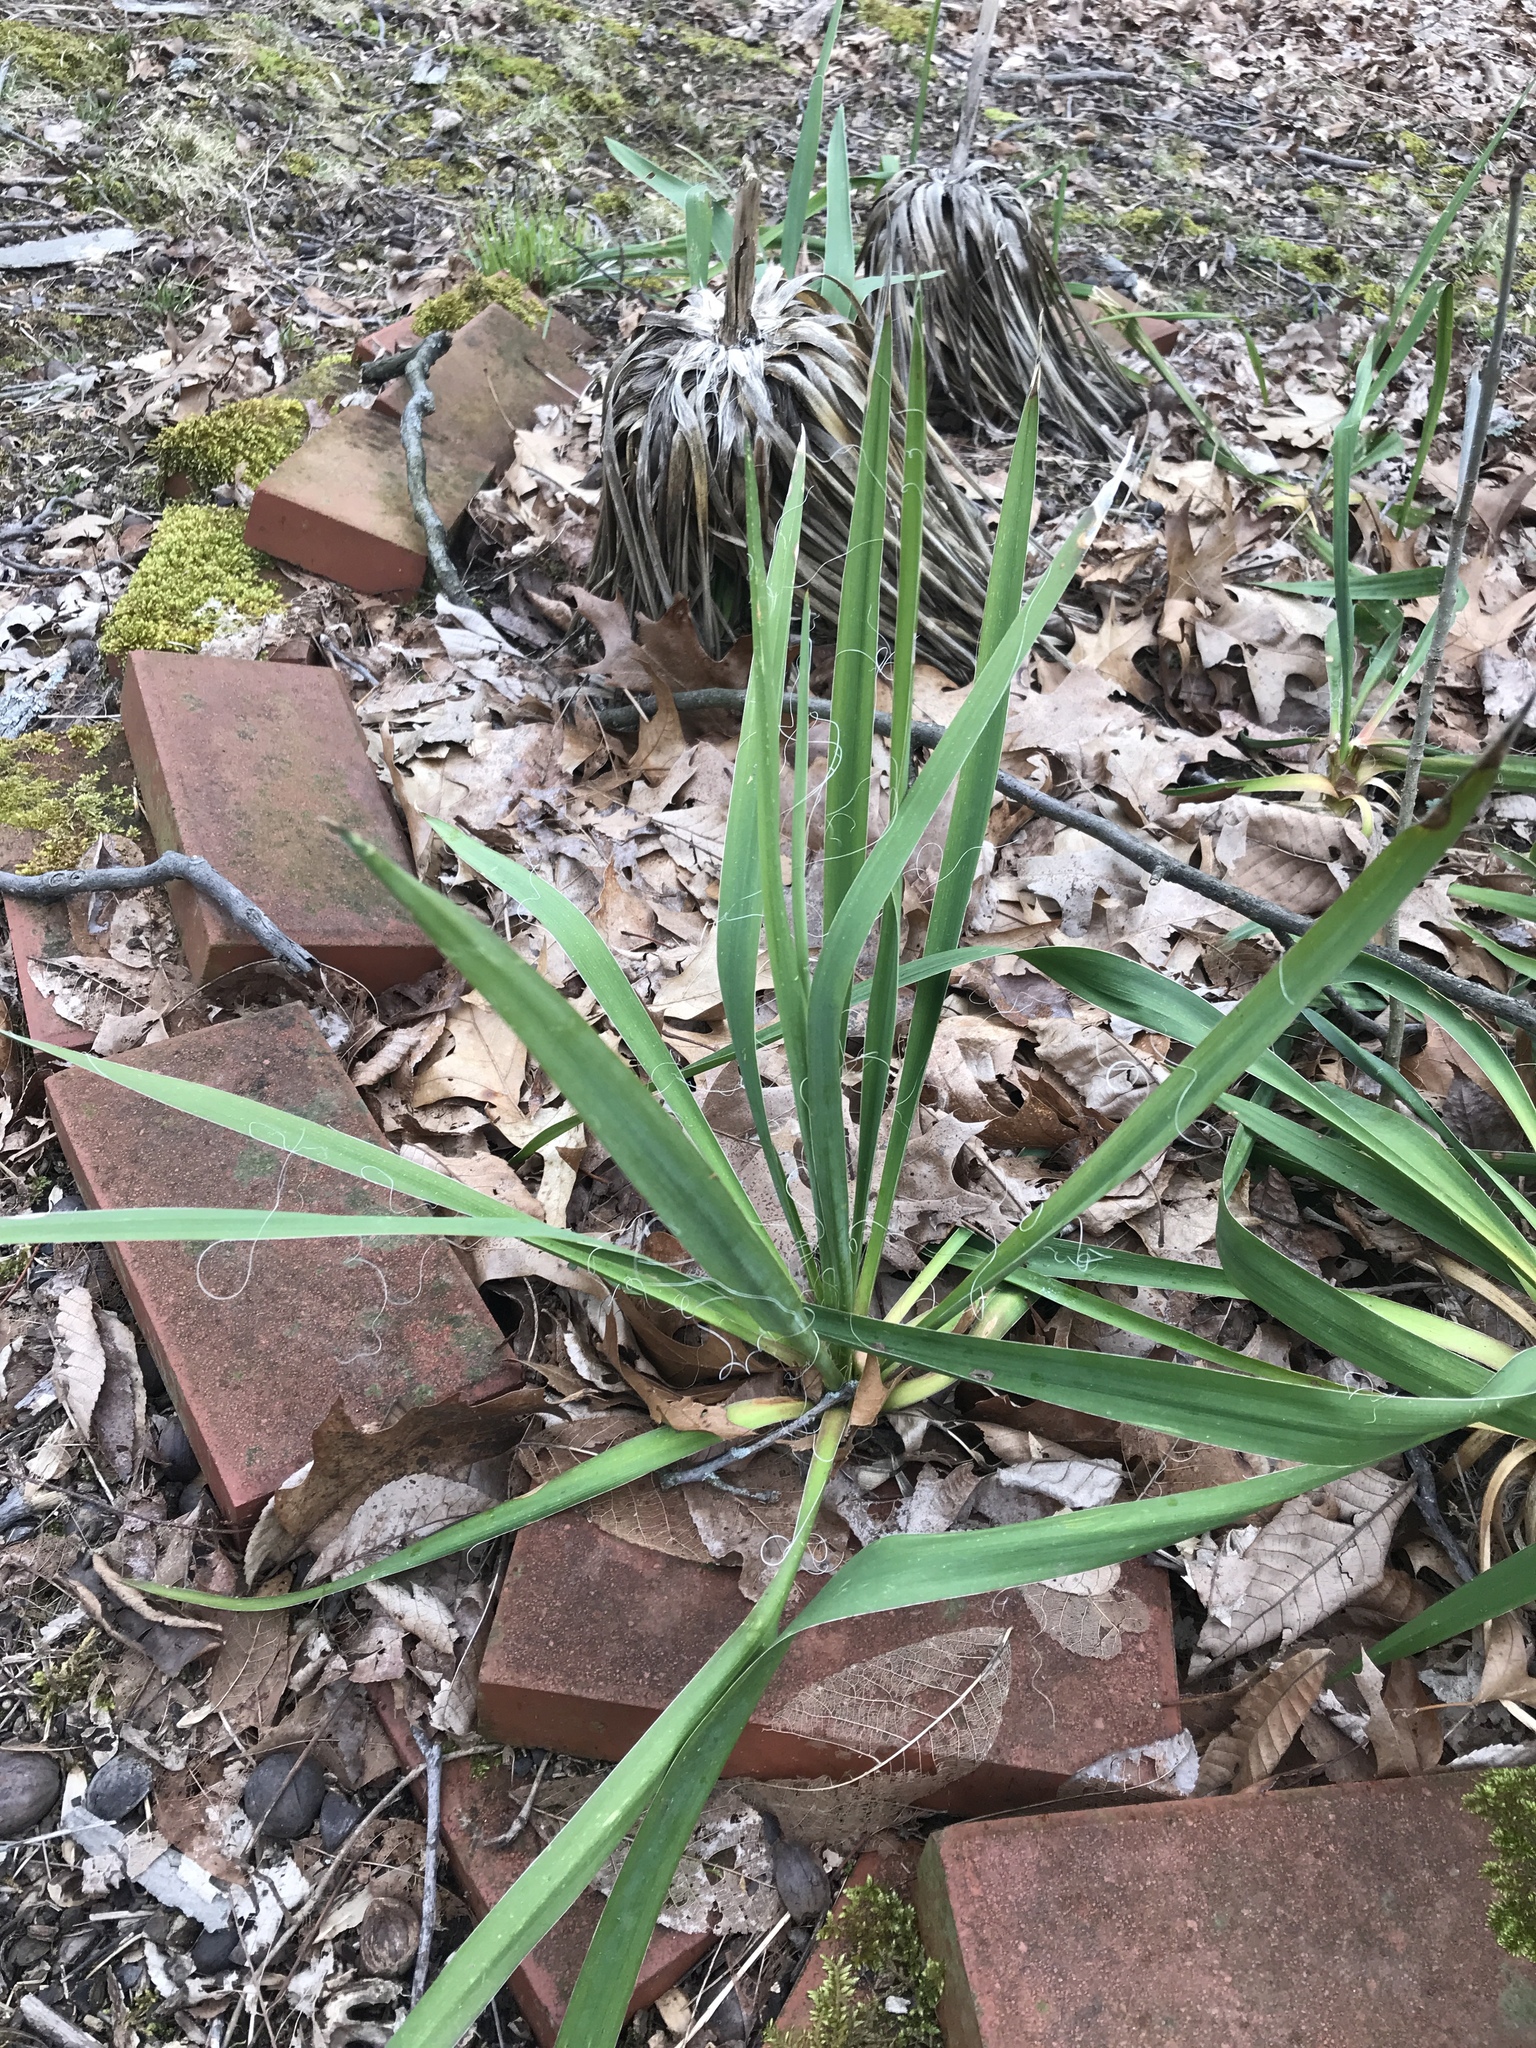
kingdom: Plantae
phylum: Tracheophyta
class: Liliopsida
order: Asparagales
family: Asparagaceae
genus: Yucca
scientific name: Yucca filamentosa
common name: Adam's-needle
